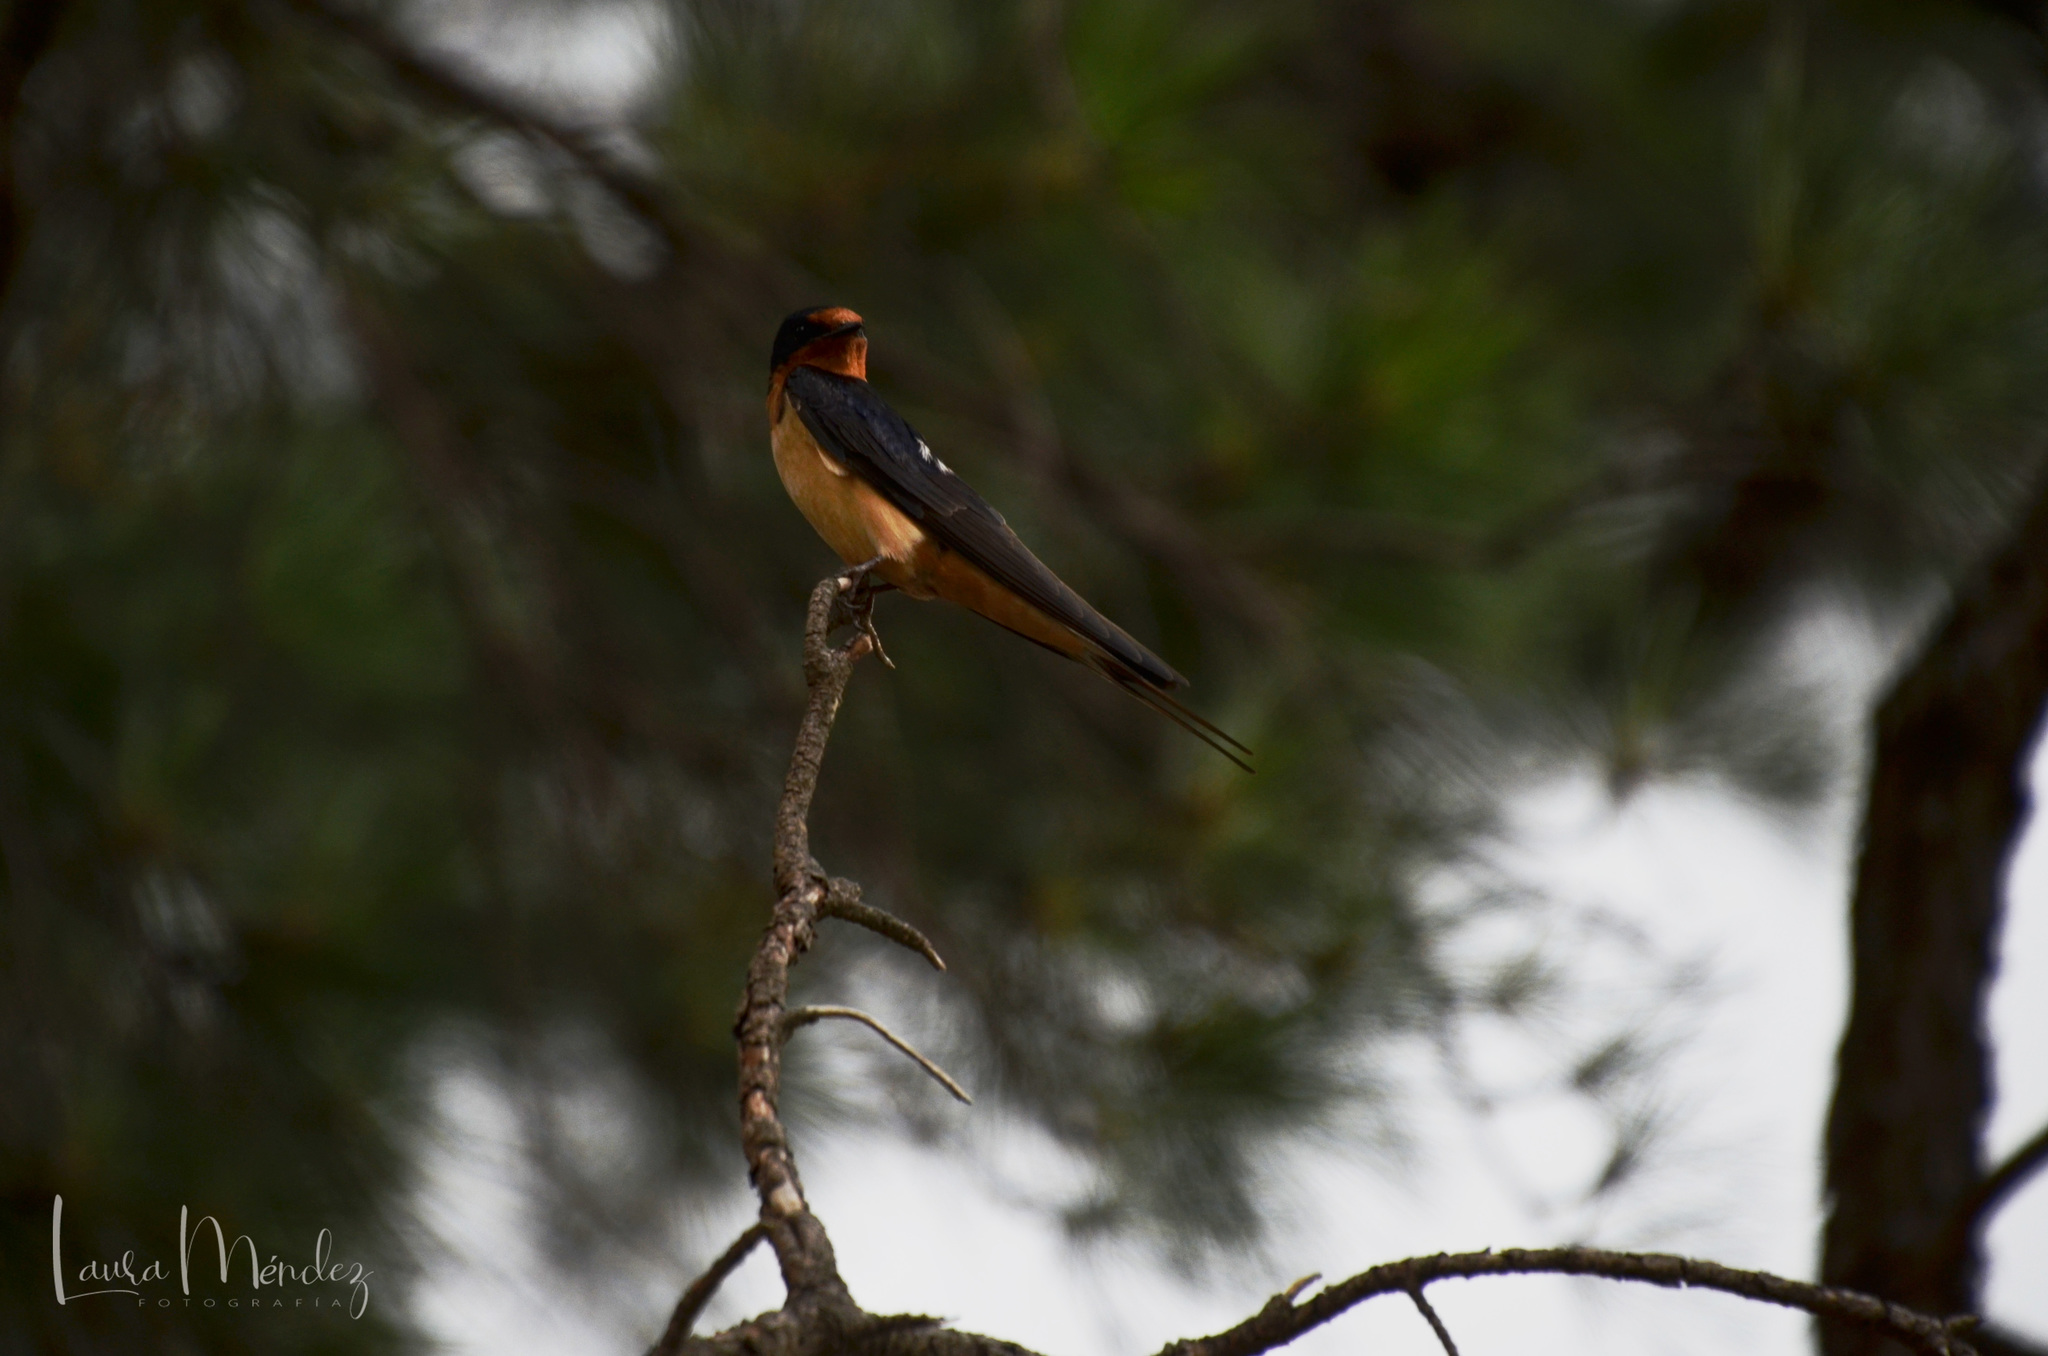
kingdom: Animalia
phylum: Chordata
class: Aves
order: Passeriformes
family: Hirundinidae
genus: Hirundo
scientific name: Hirundo rustica
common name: Barn swallow
